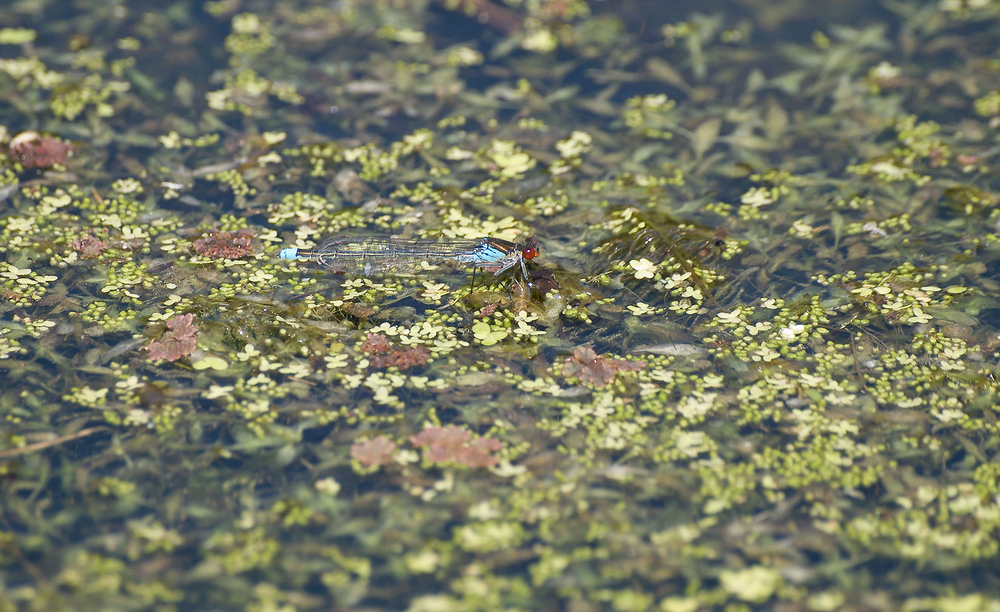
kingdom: Animalia
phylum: Arthropoda
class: Insecta
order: Odonata
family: Coenagrionidae
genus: Erythromma
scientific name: Erythromma najas
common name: Red-eyed damselfly
